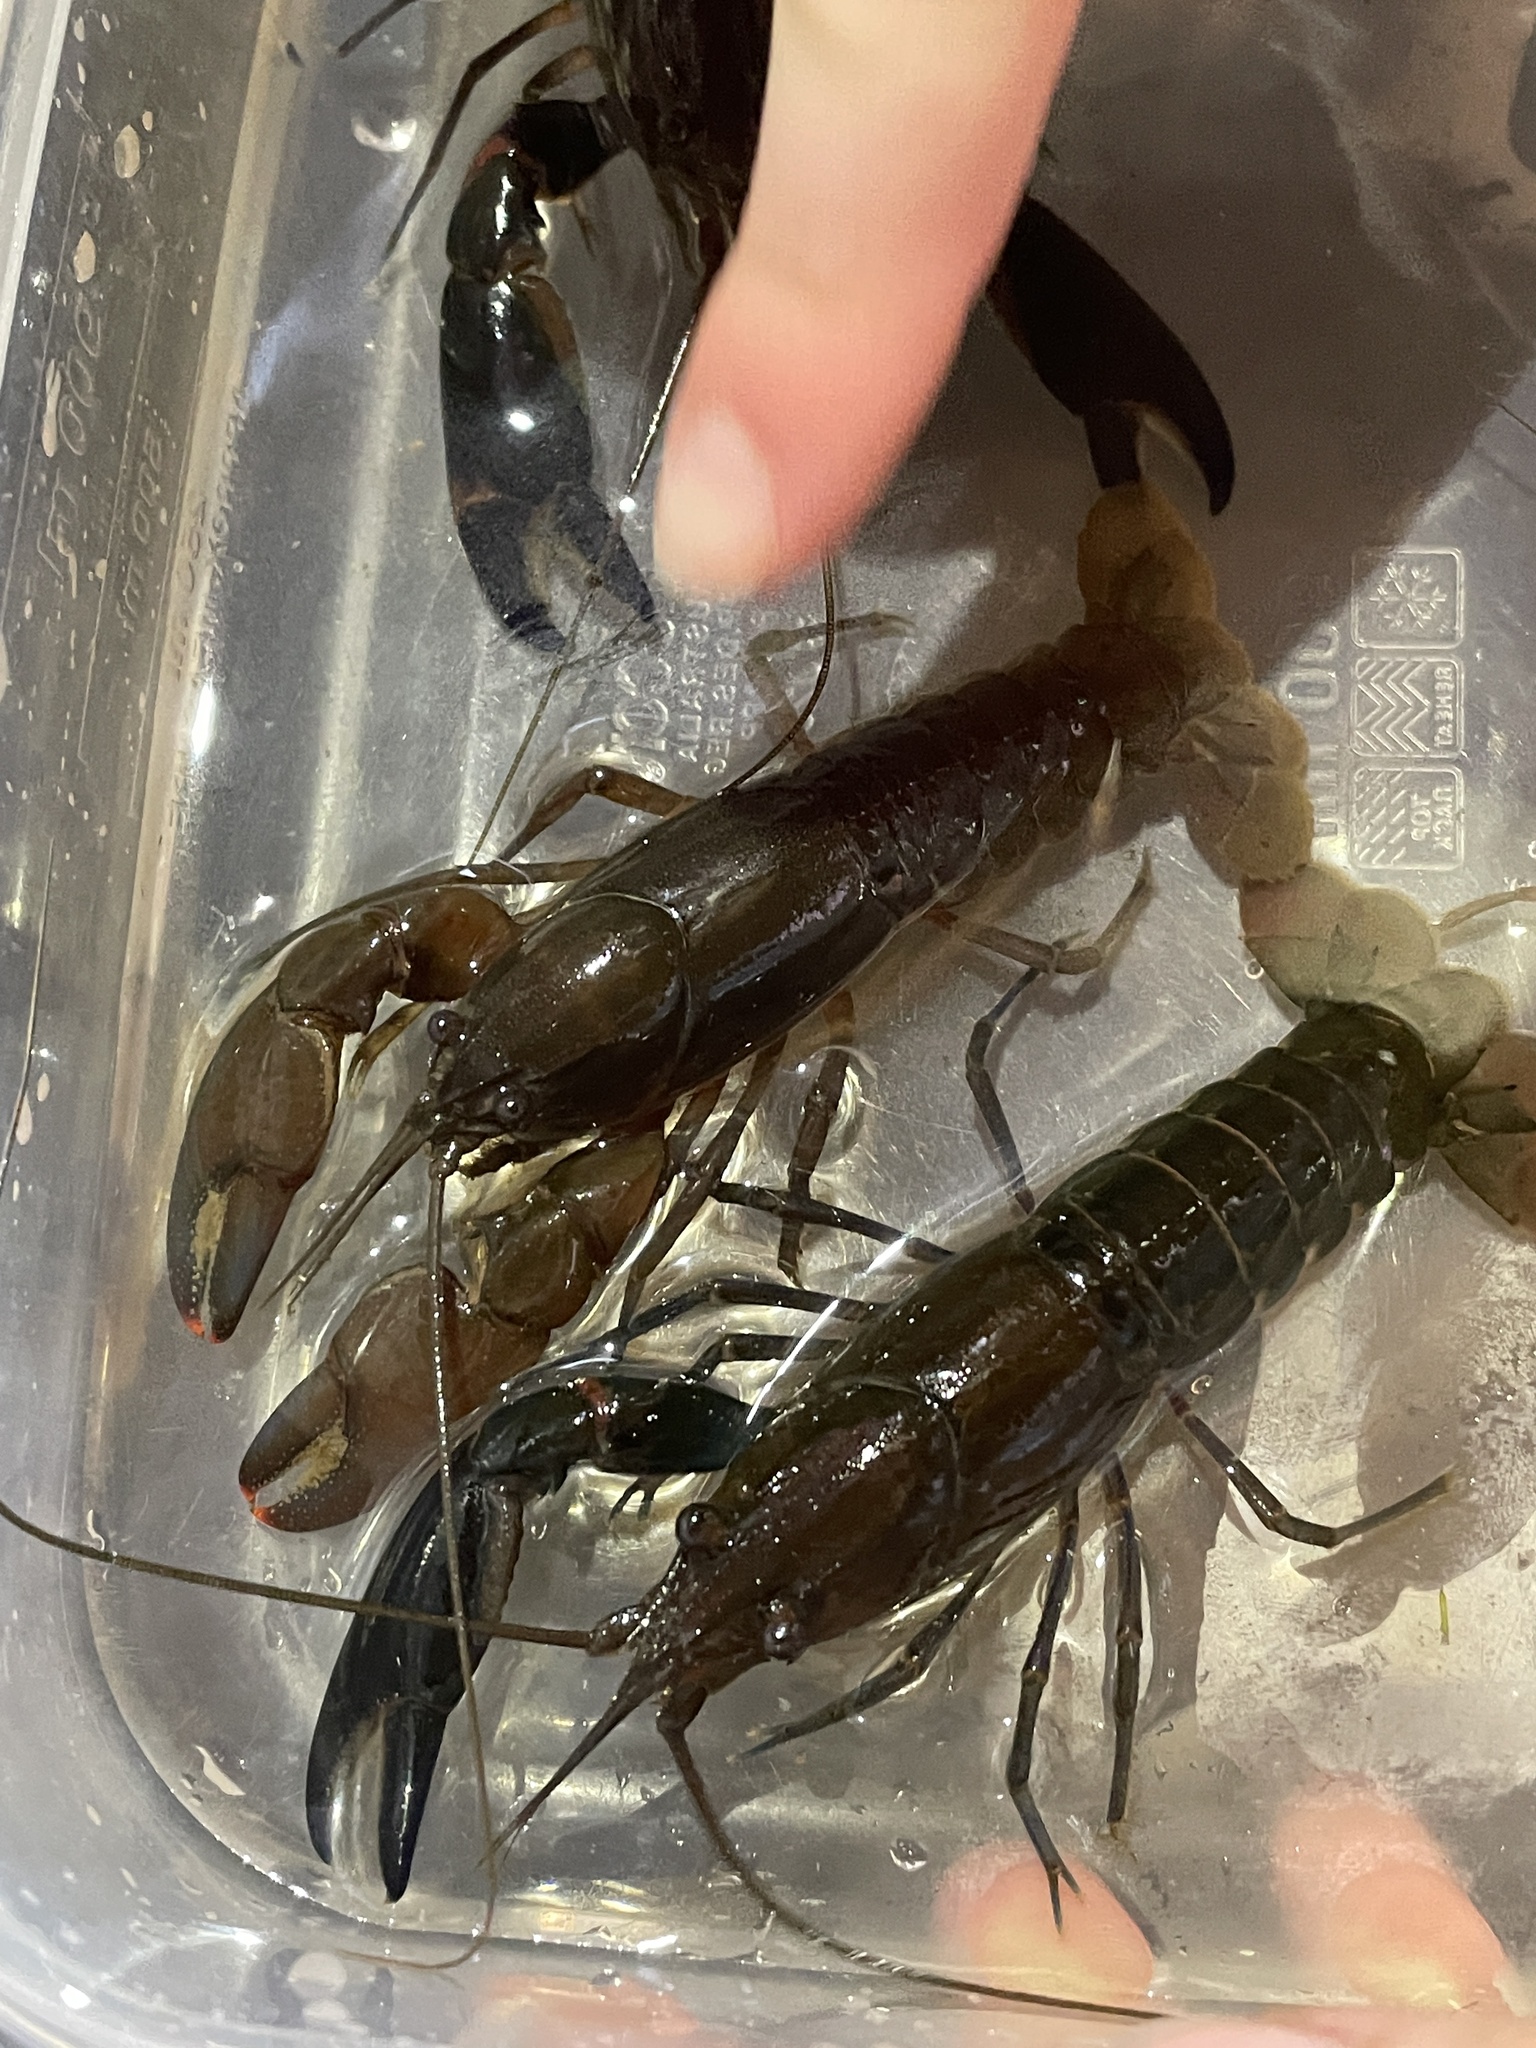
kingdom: Animalia
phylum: Arthropoda
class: Malacostraca
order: Decapoda
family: Parastacidae
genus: Cherax
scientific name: Cherax depressus
